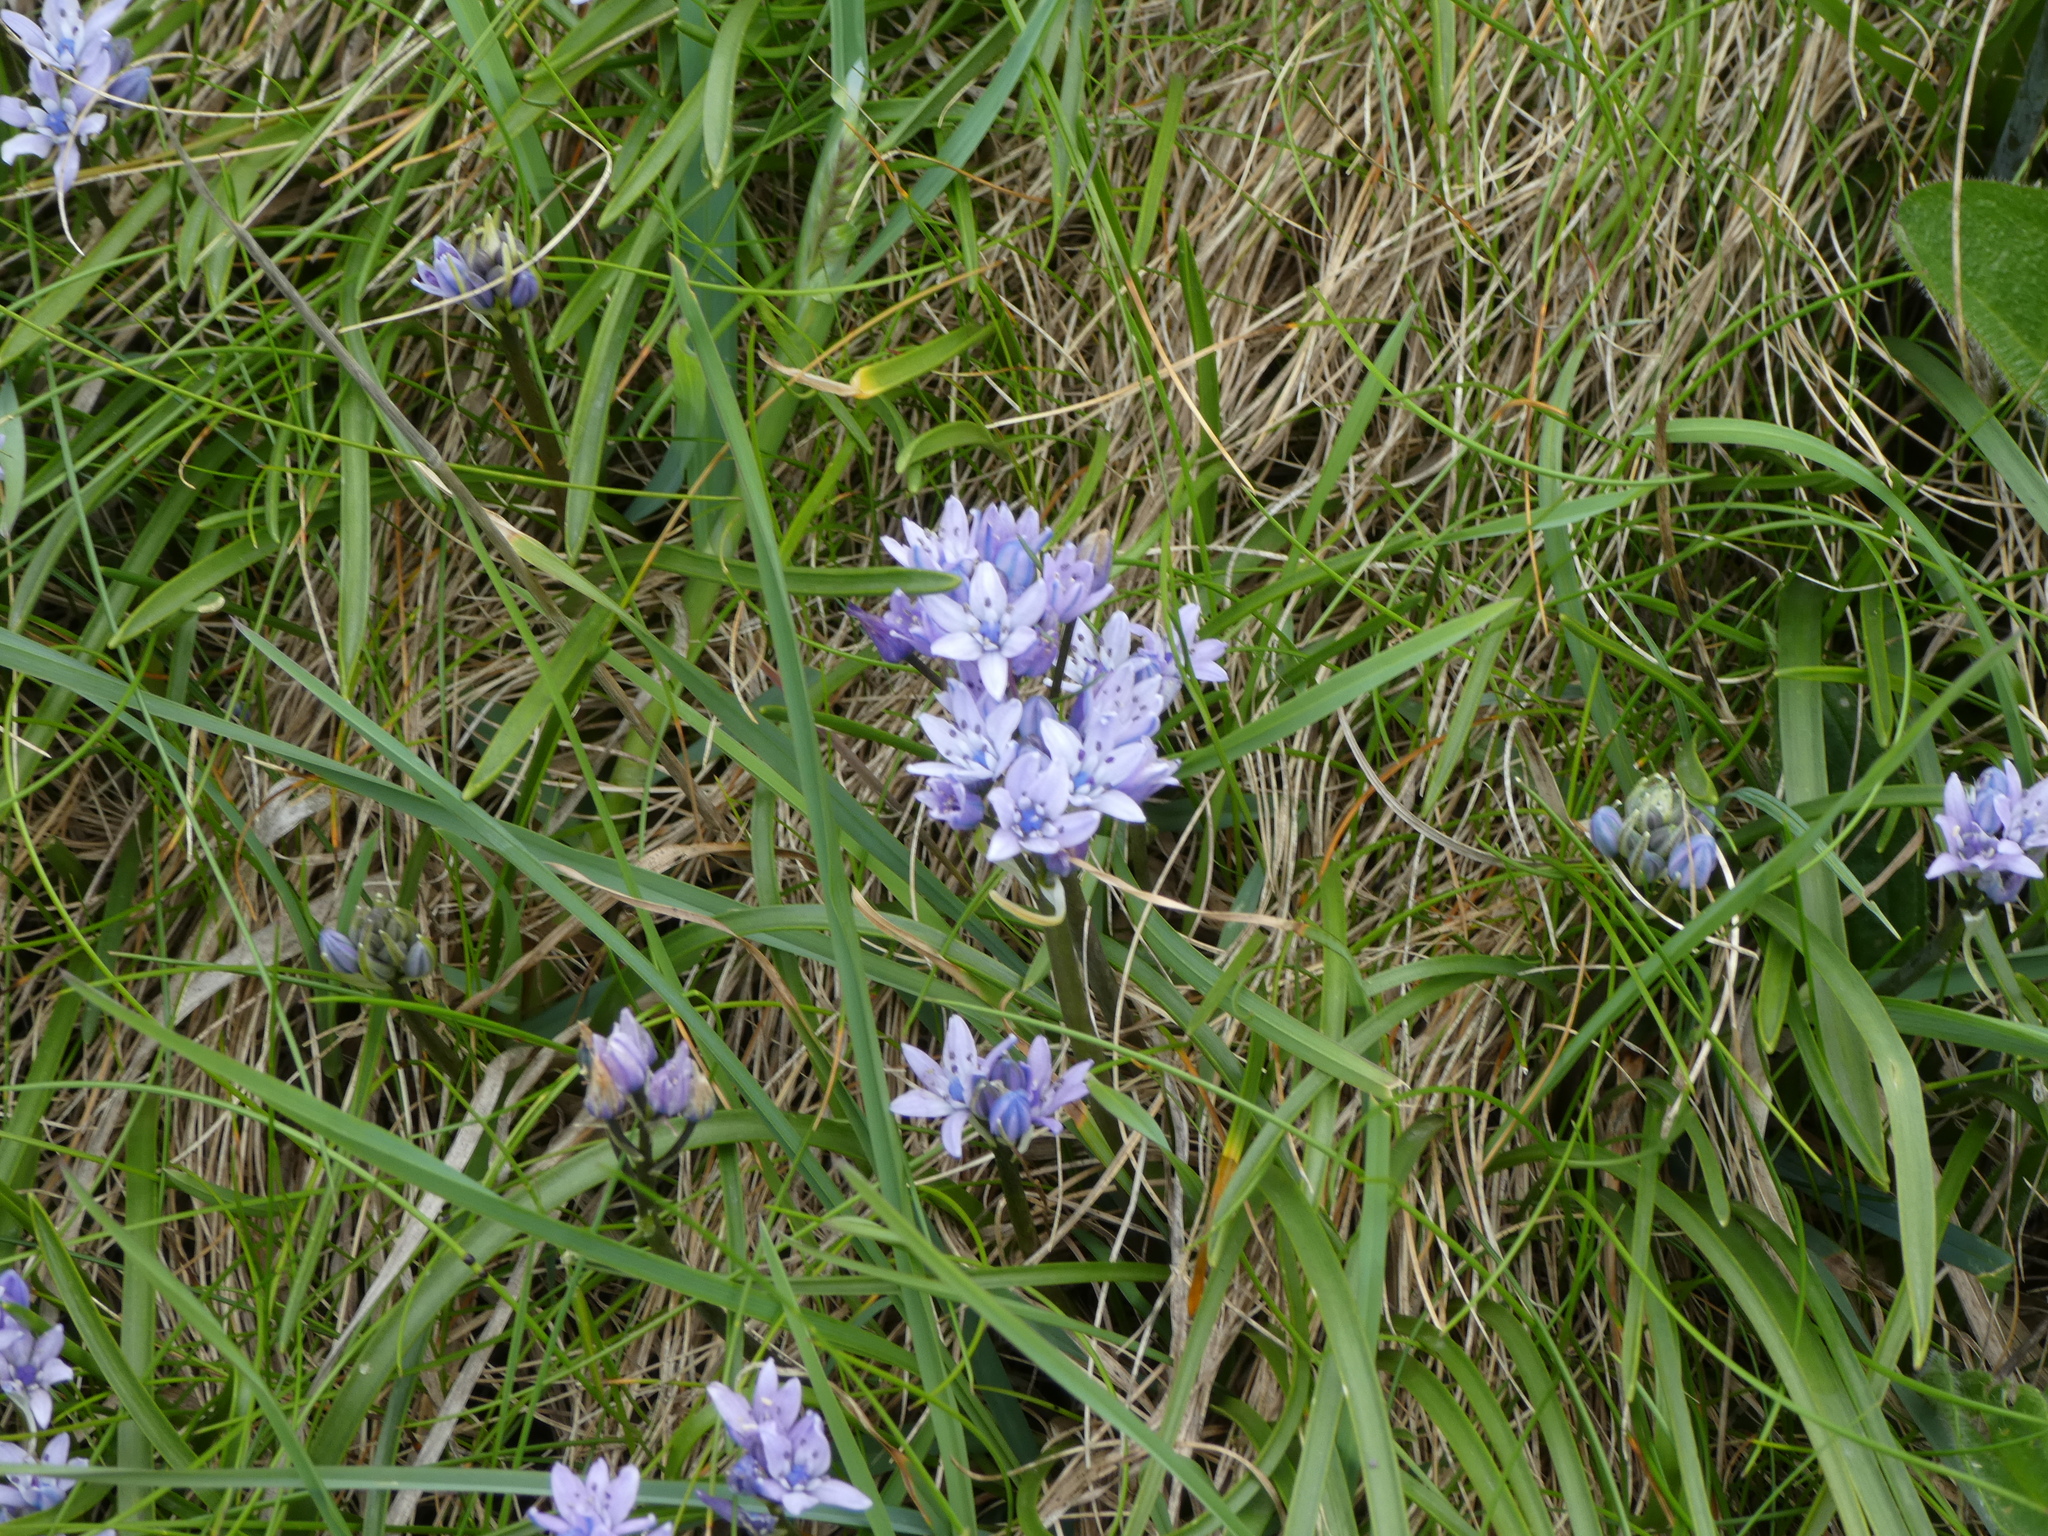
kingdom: Plantae
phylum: Tracheophyta
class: Liliopsida
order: Asparagales
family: Asparagaceae
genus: Scilla
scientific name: Scilla verna
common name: Spring squill
